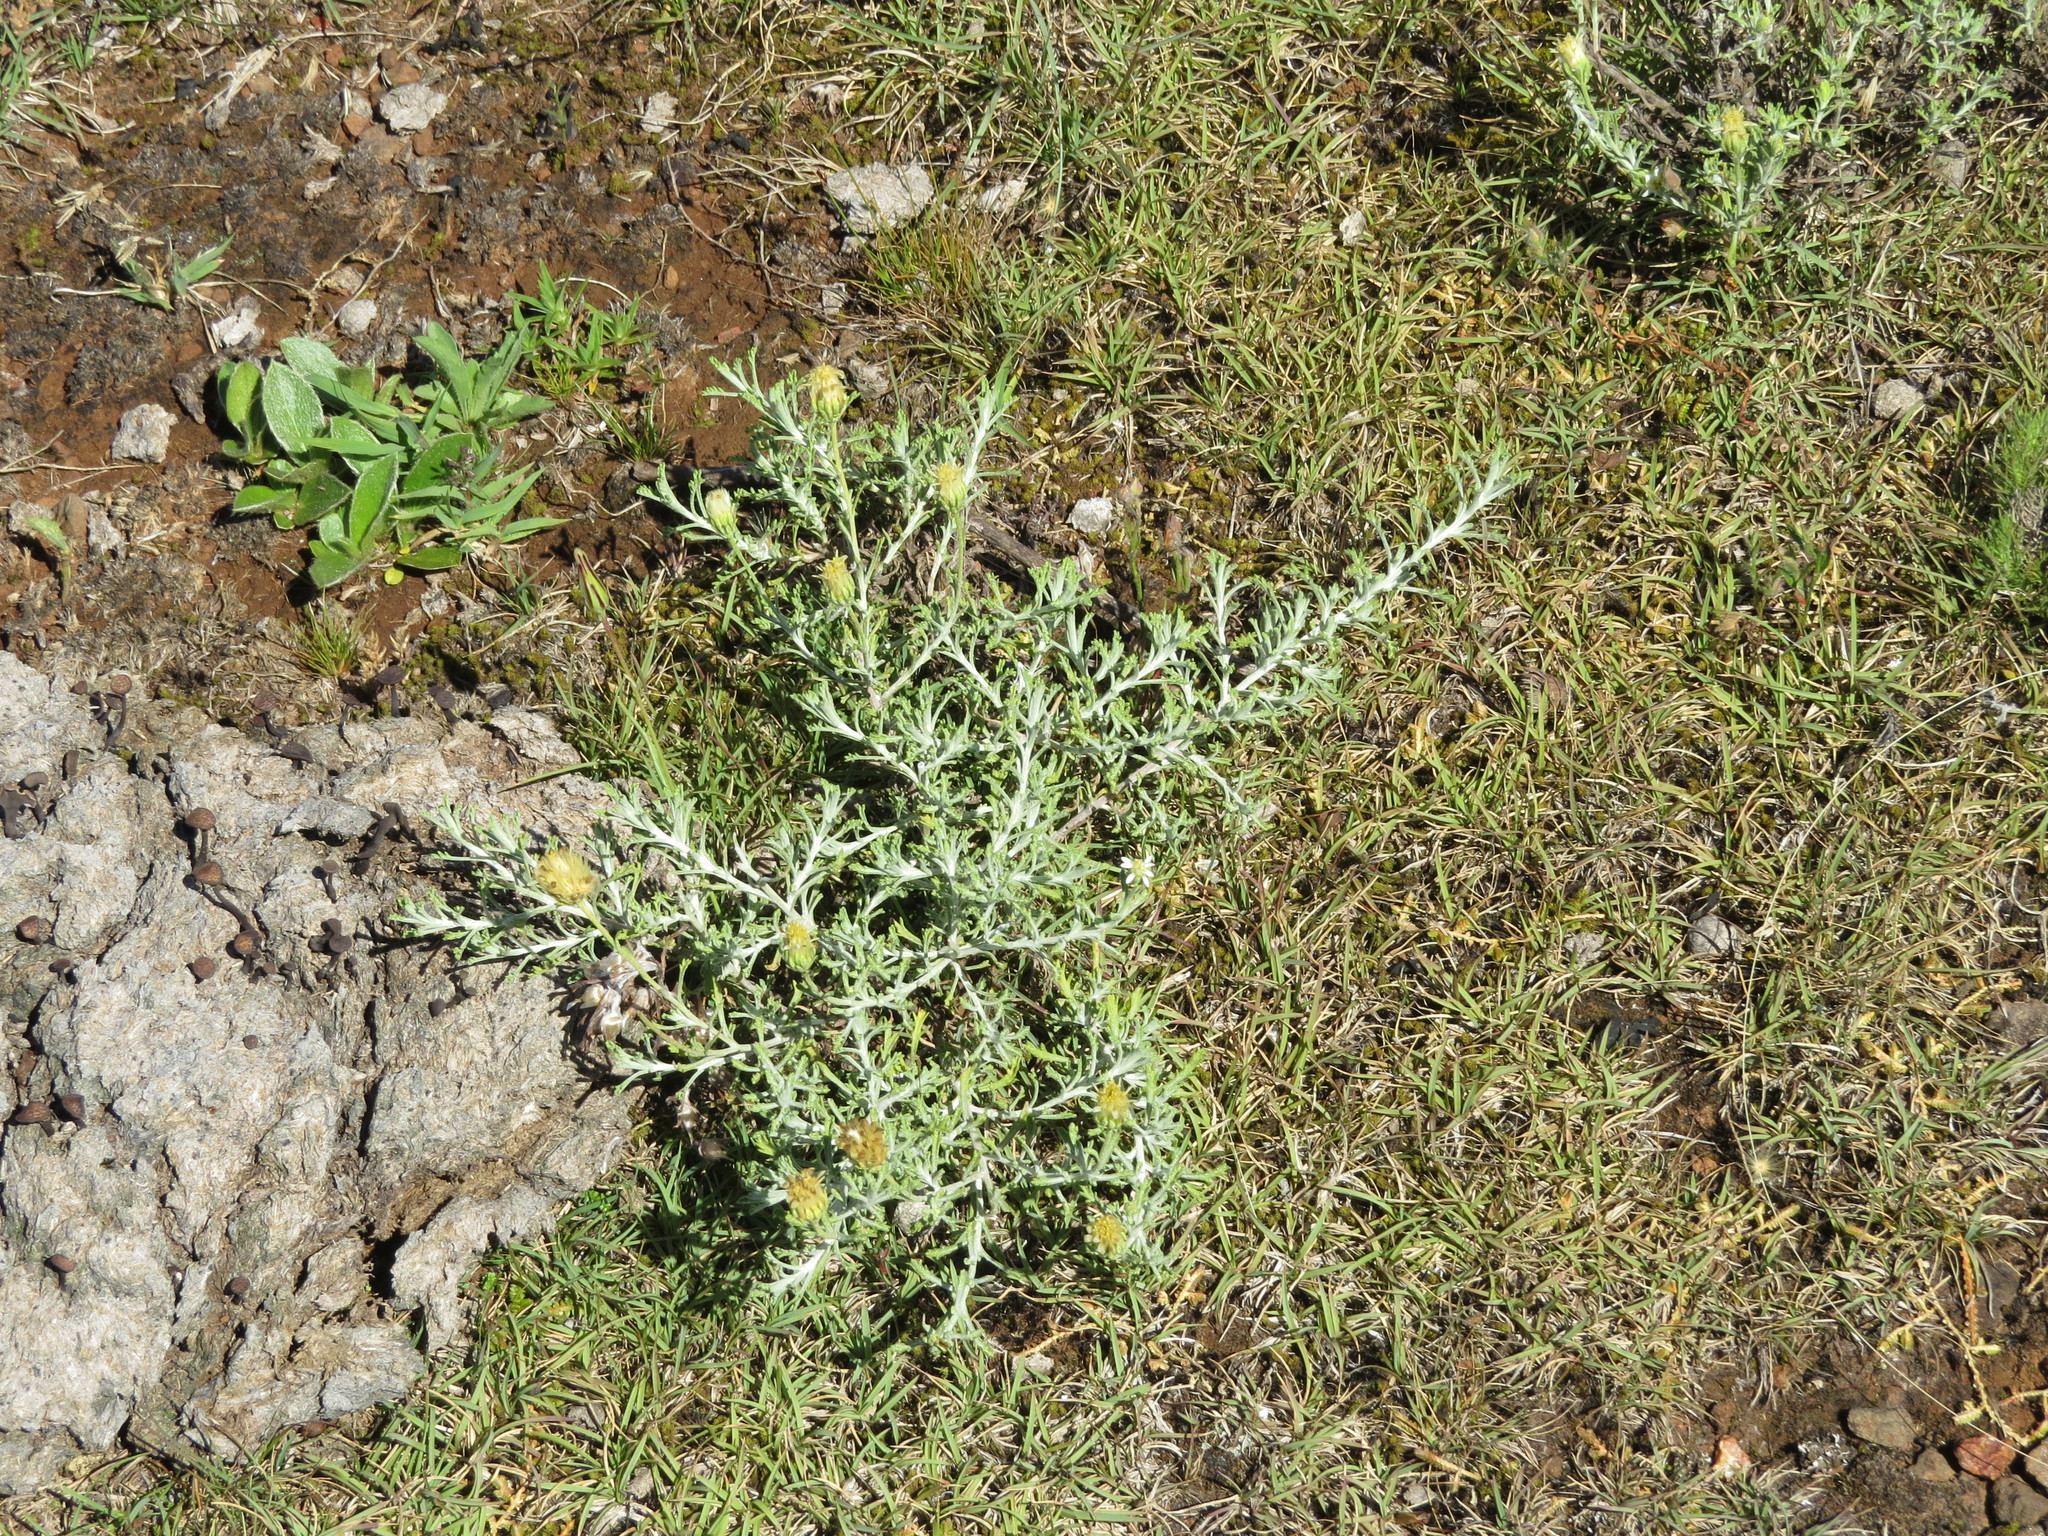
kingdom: Plantae
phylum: Tracheophyta
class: Magnoliopsida
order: Asterales
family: Asteraceae
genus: Microgyne
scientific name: Microgyne marchesiana
